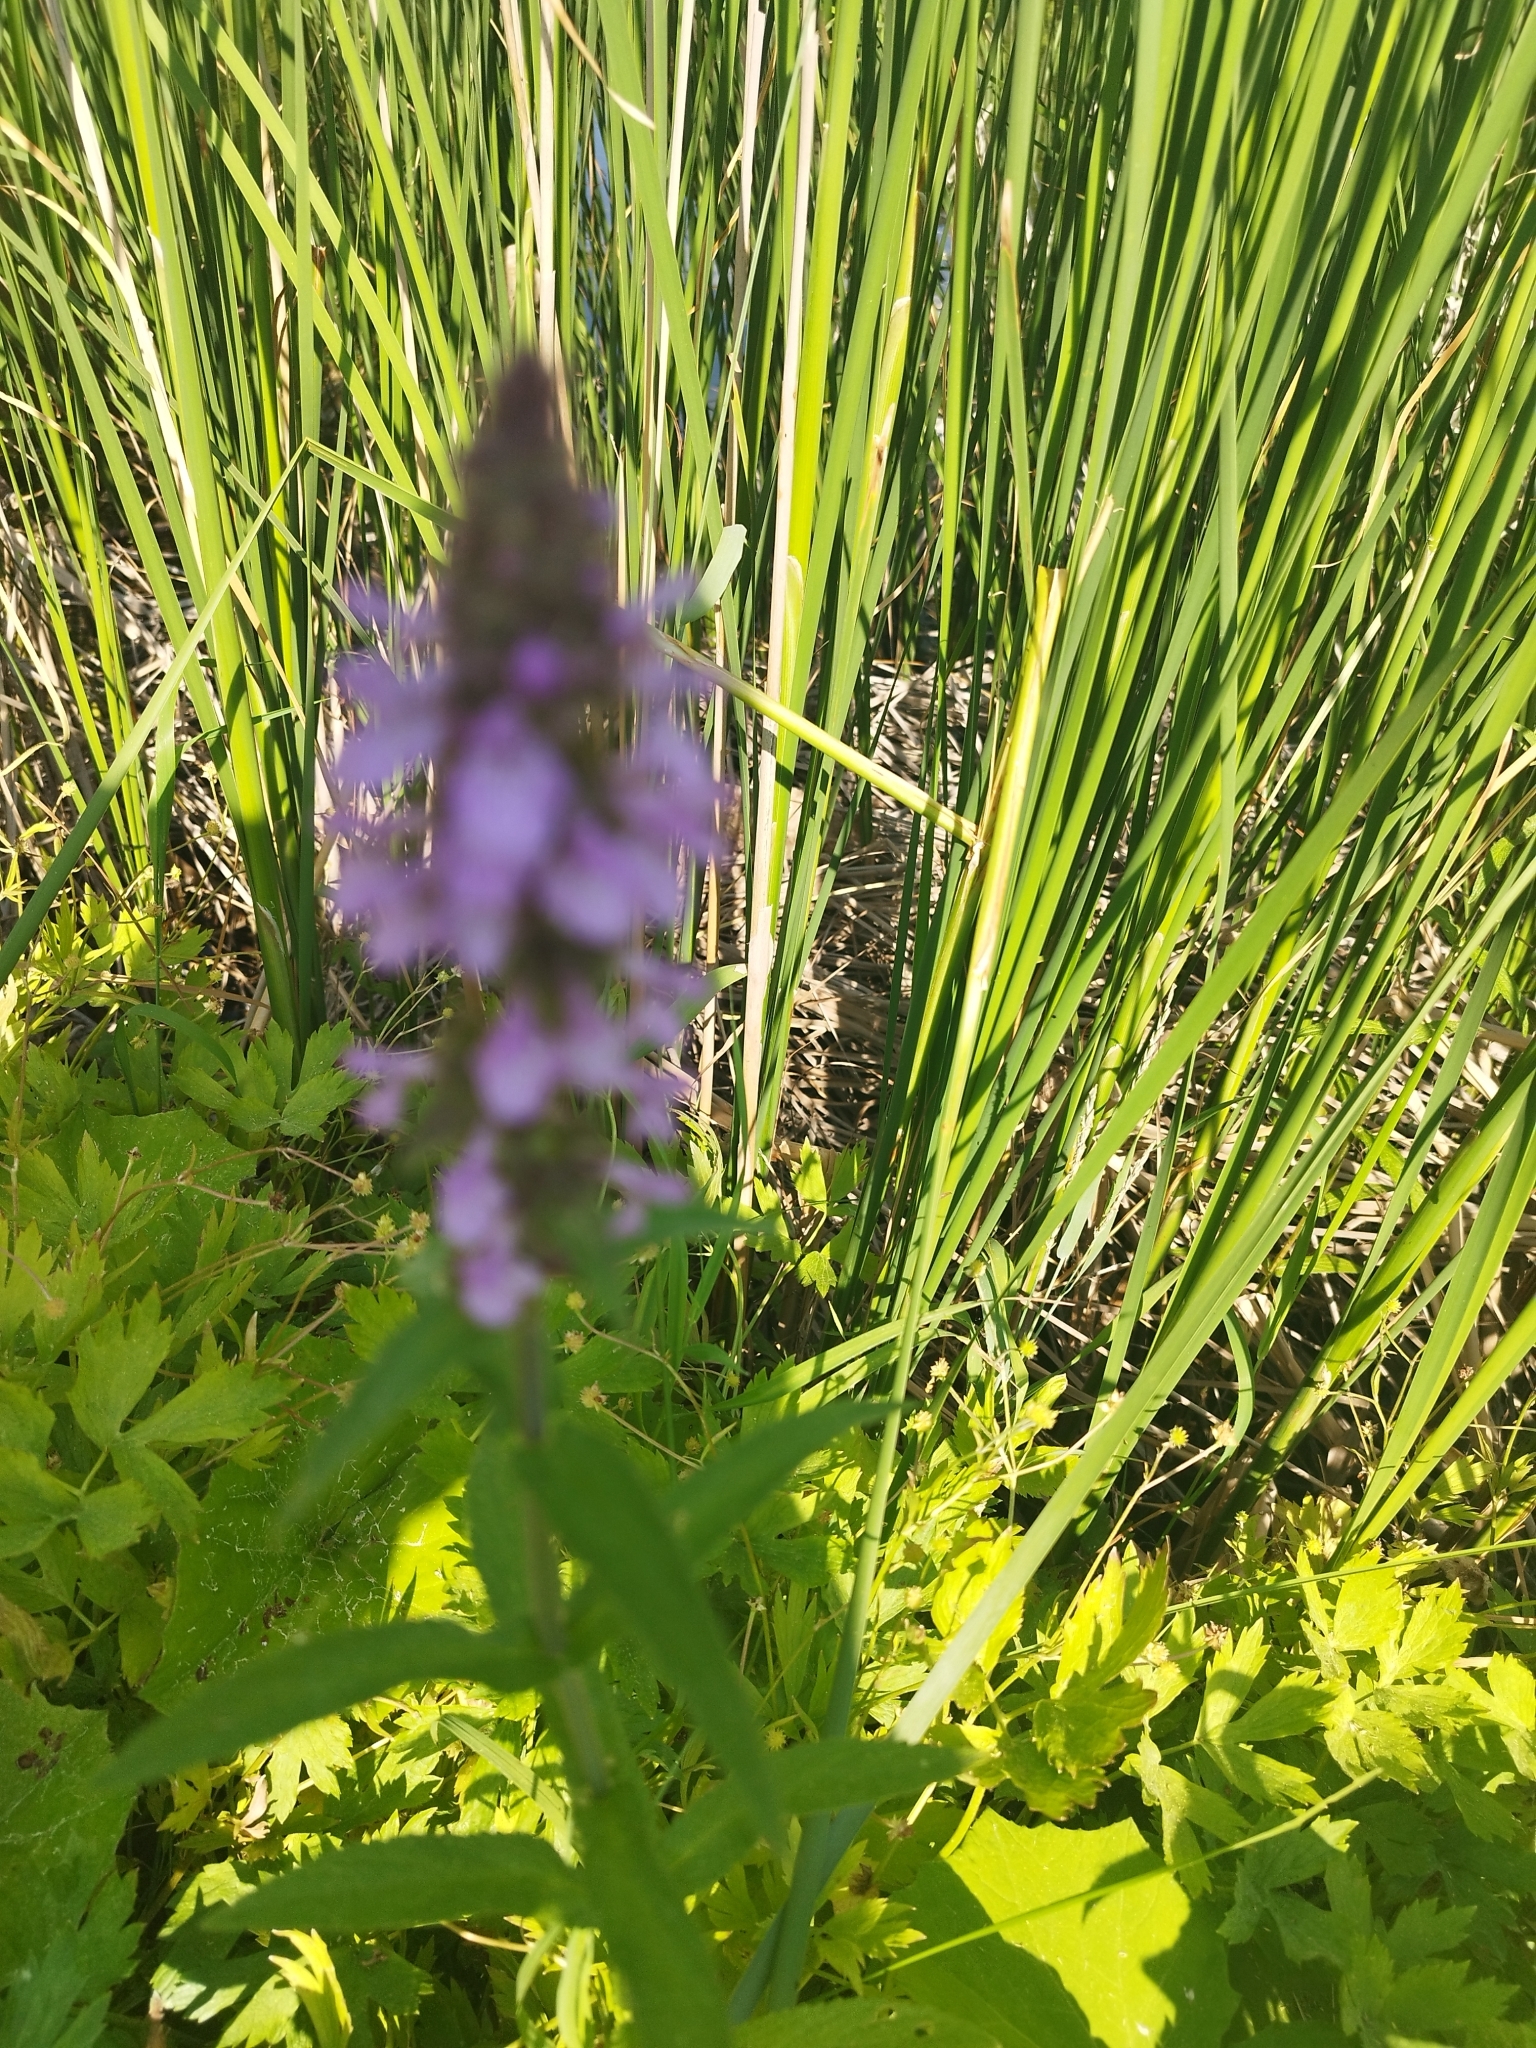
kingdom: Plantae
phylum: Tracheophyta
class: Magnoliopsida
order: Lamiales
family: Lamiaceae
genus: Stachys
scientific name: Stachys palustris
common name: Marsh woundwort
